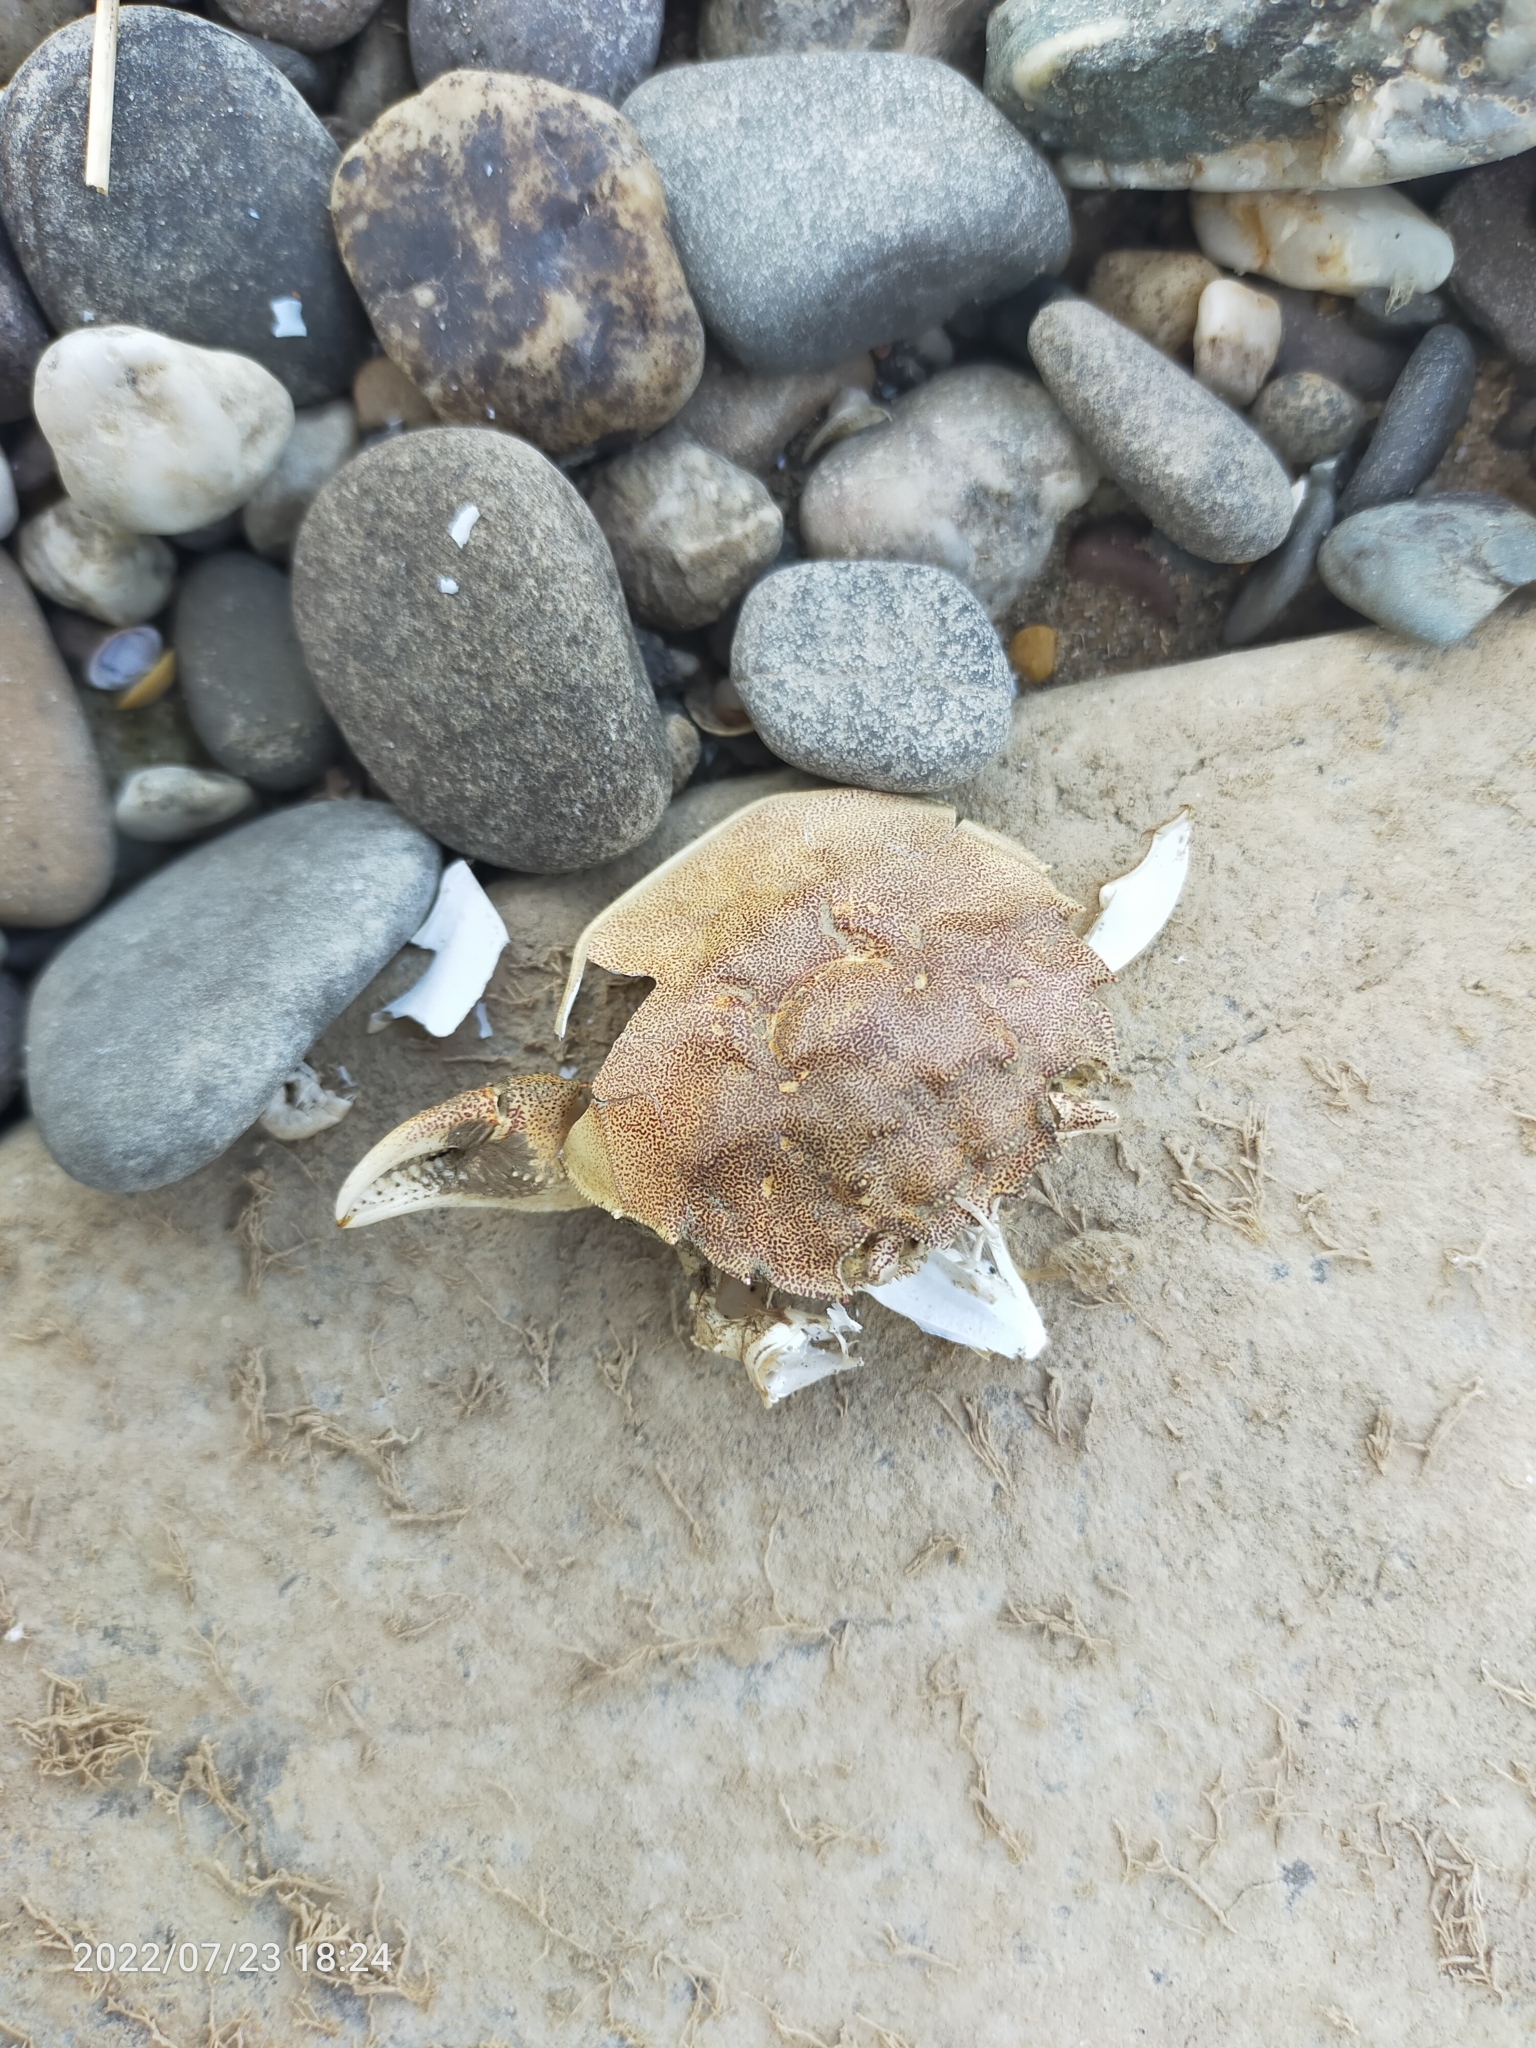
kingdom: Animalia
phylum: Arthropoda
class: Malacostraca
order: Decapoda
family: Varunidae
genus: Eriocheir
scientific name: Eriocheir sinensis
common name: Chinese mitten crab
